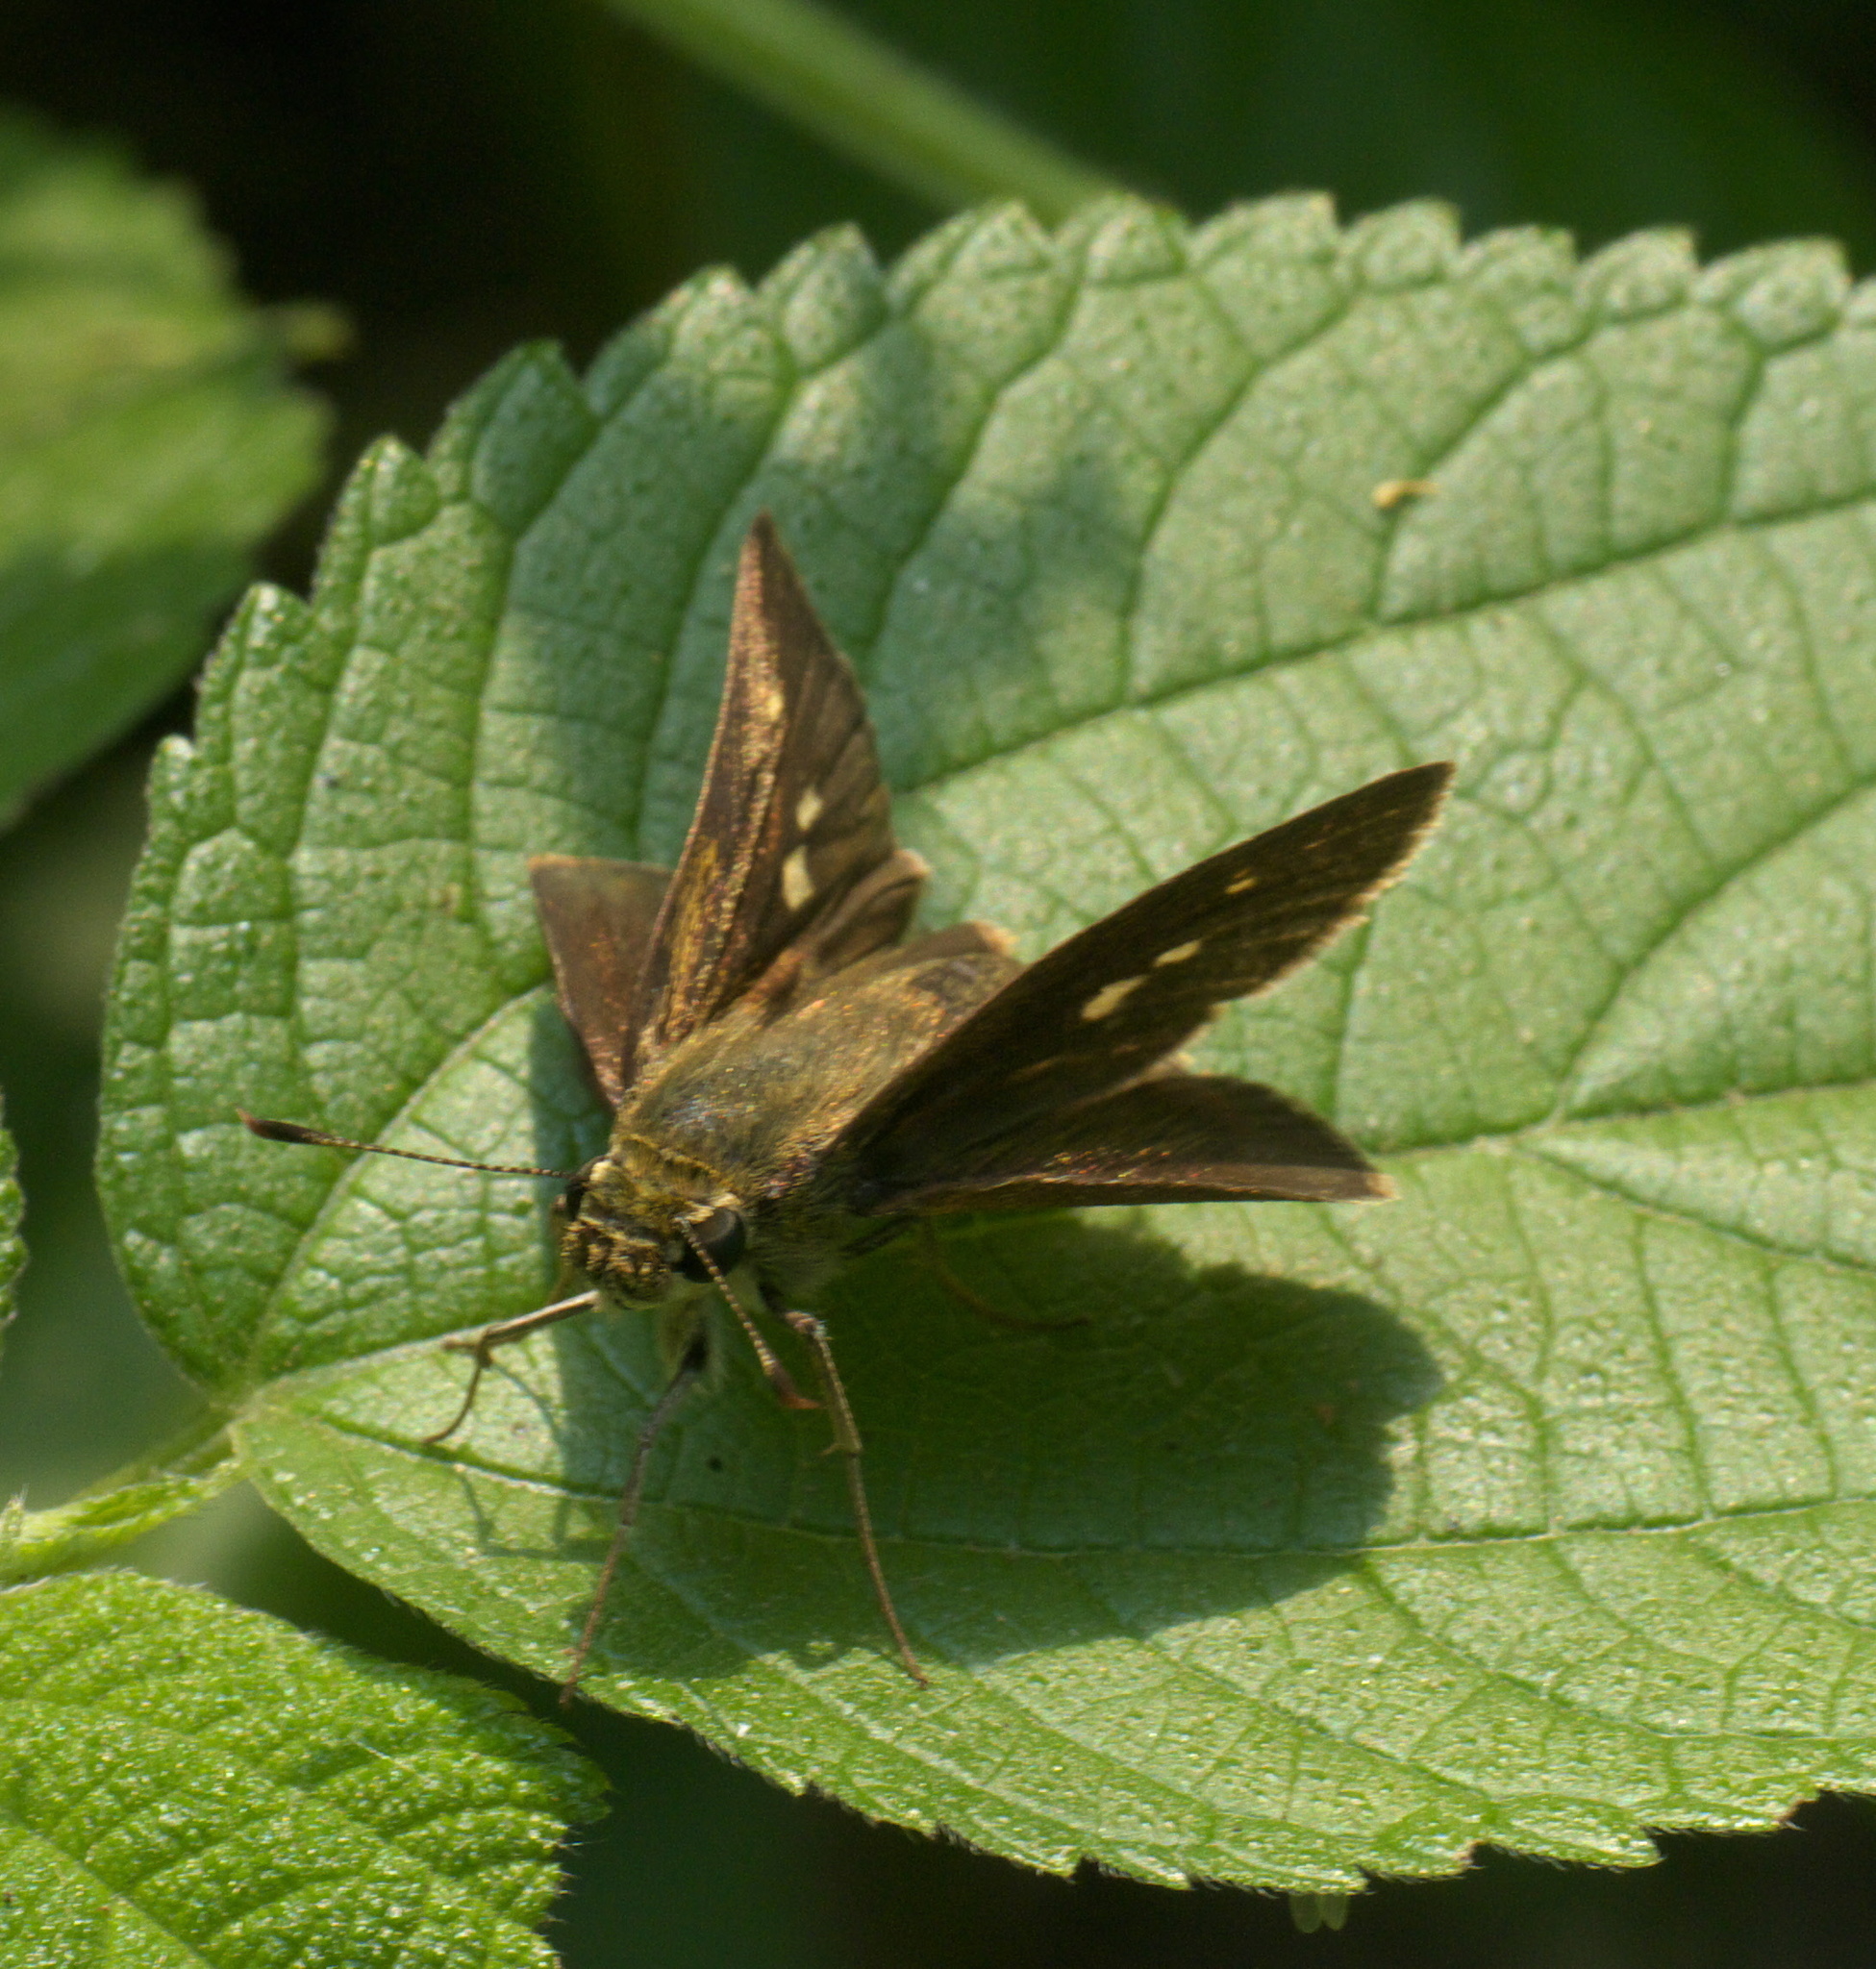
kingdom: Animalia
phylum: Arthropoda
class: Insecta
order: Lepidoptera
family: Hesperiidae
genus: Vernia
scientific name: Vernia verna
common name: Little glassywing
